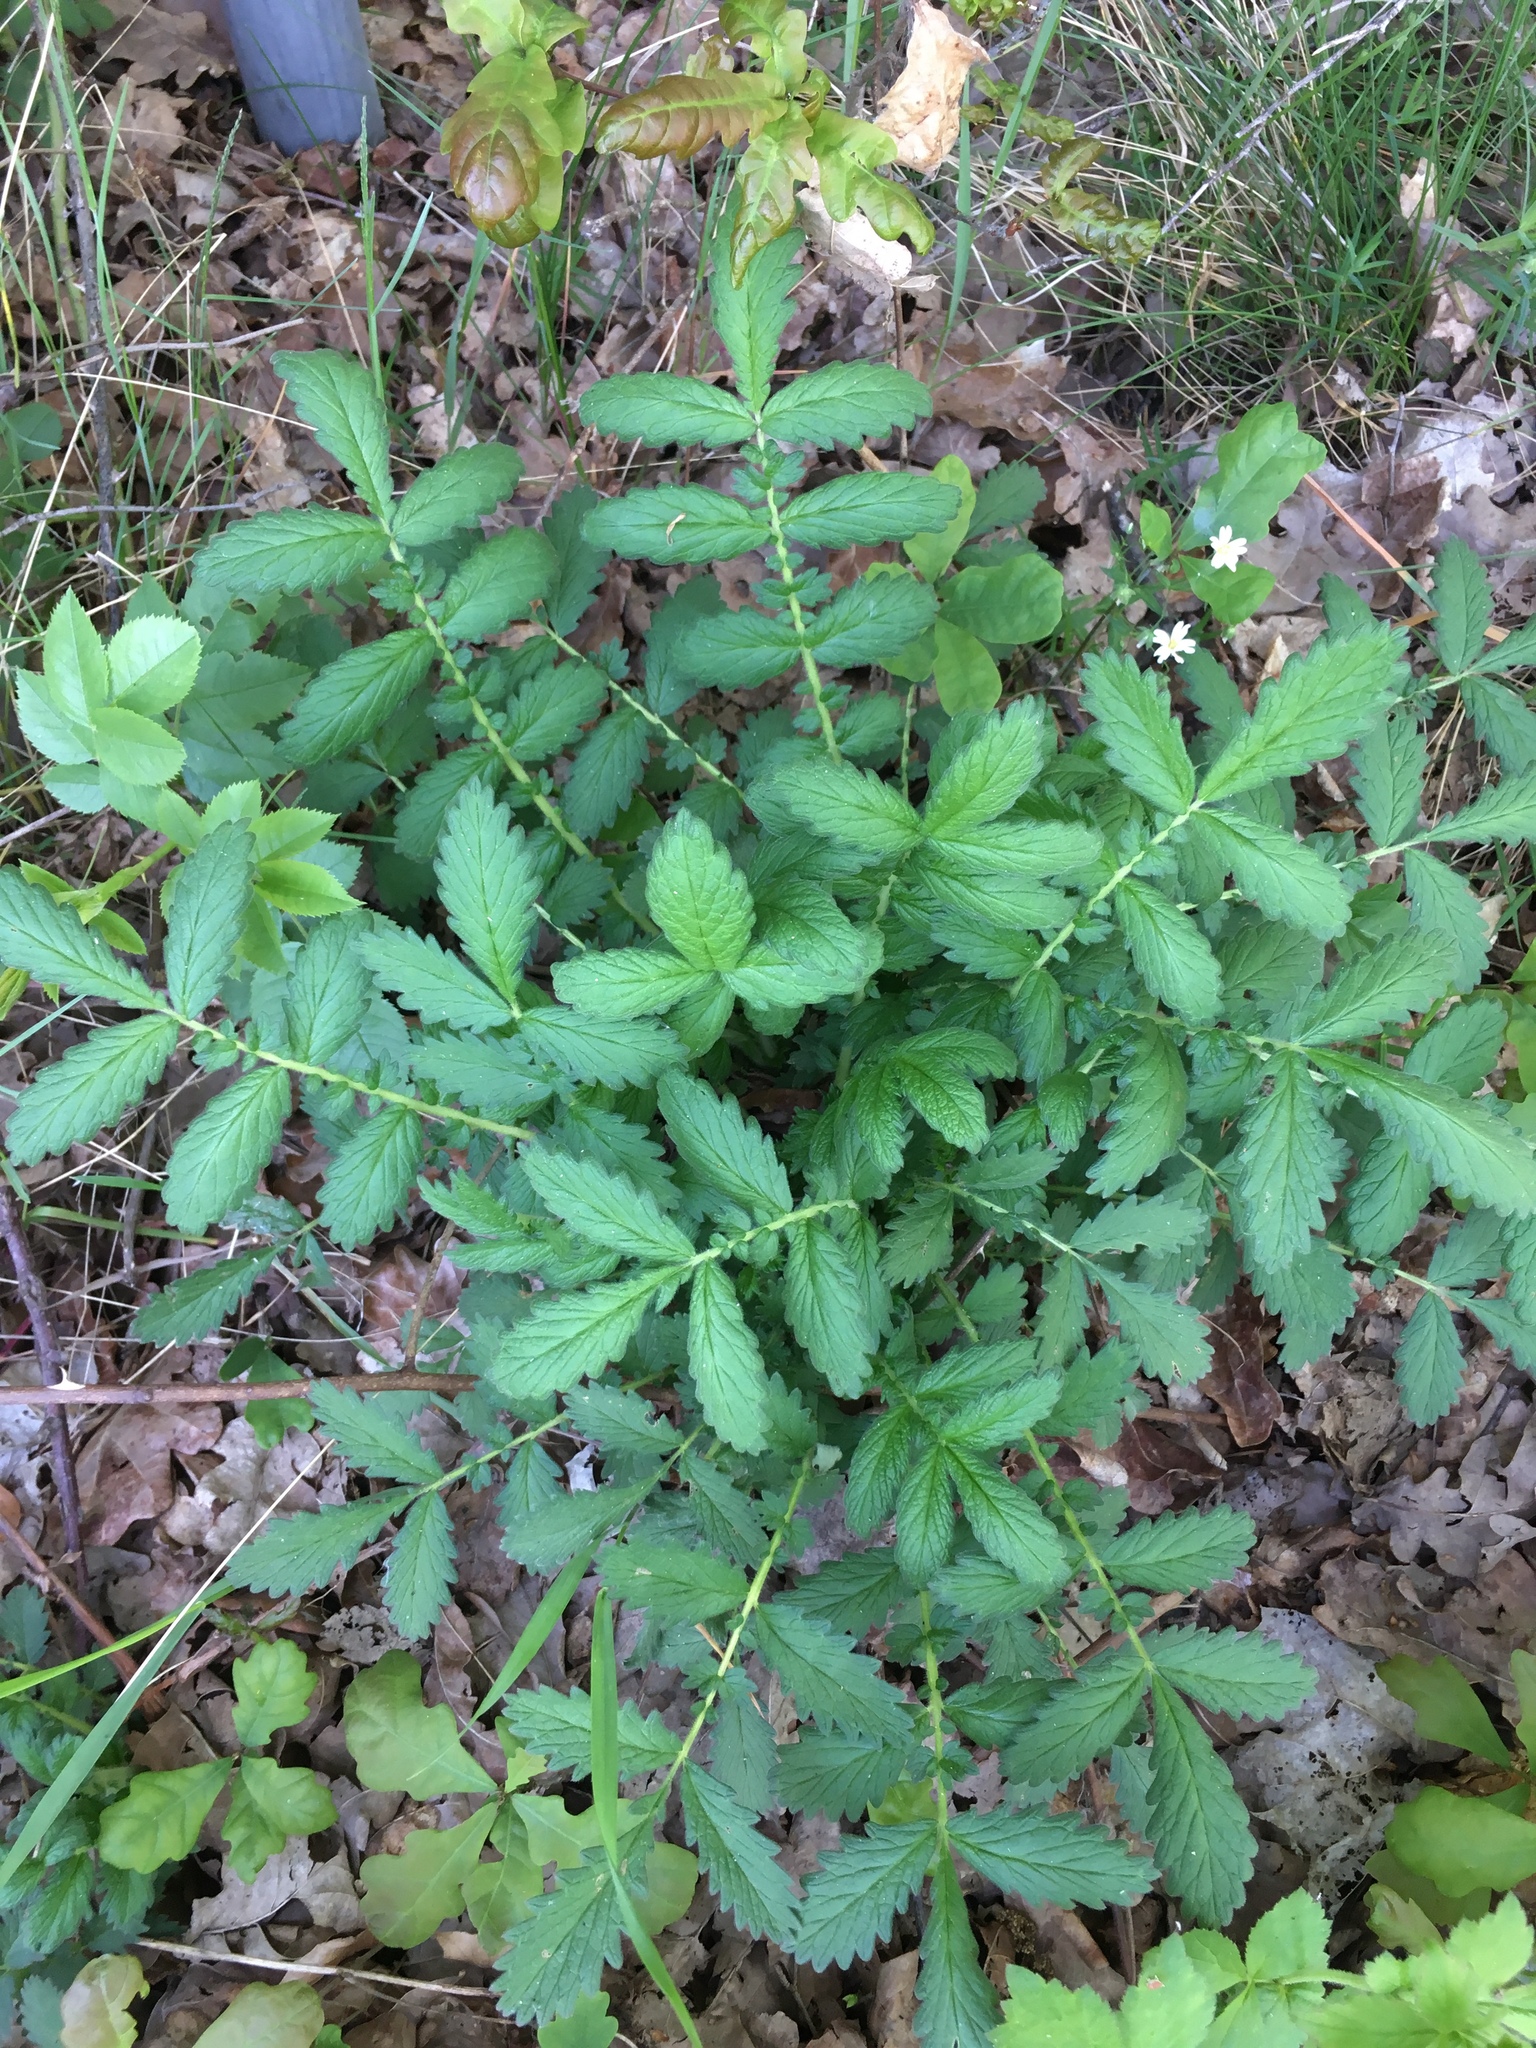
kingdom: Plantae
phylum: Tracheophyta
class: Magnoliopsida
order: Rosales
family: Rosaceae
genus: Agrimonia
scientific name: Agrimonia eupatoria
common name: Agrimony
